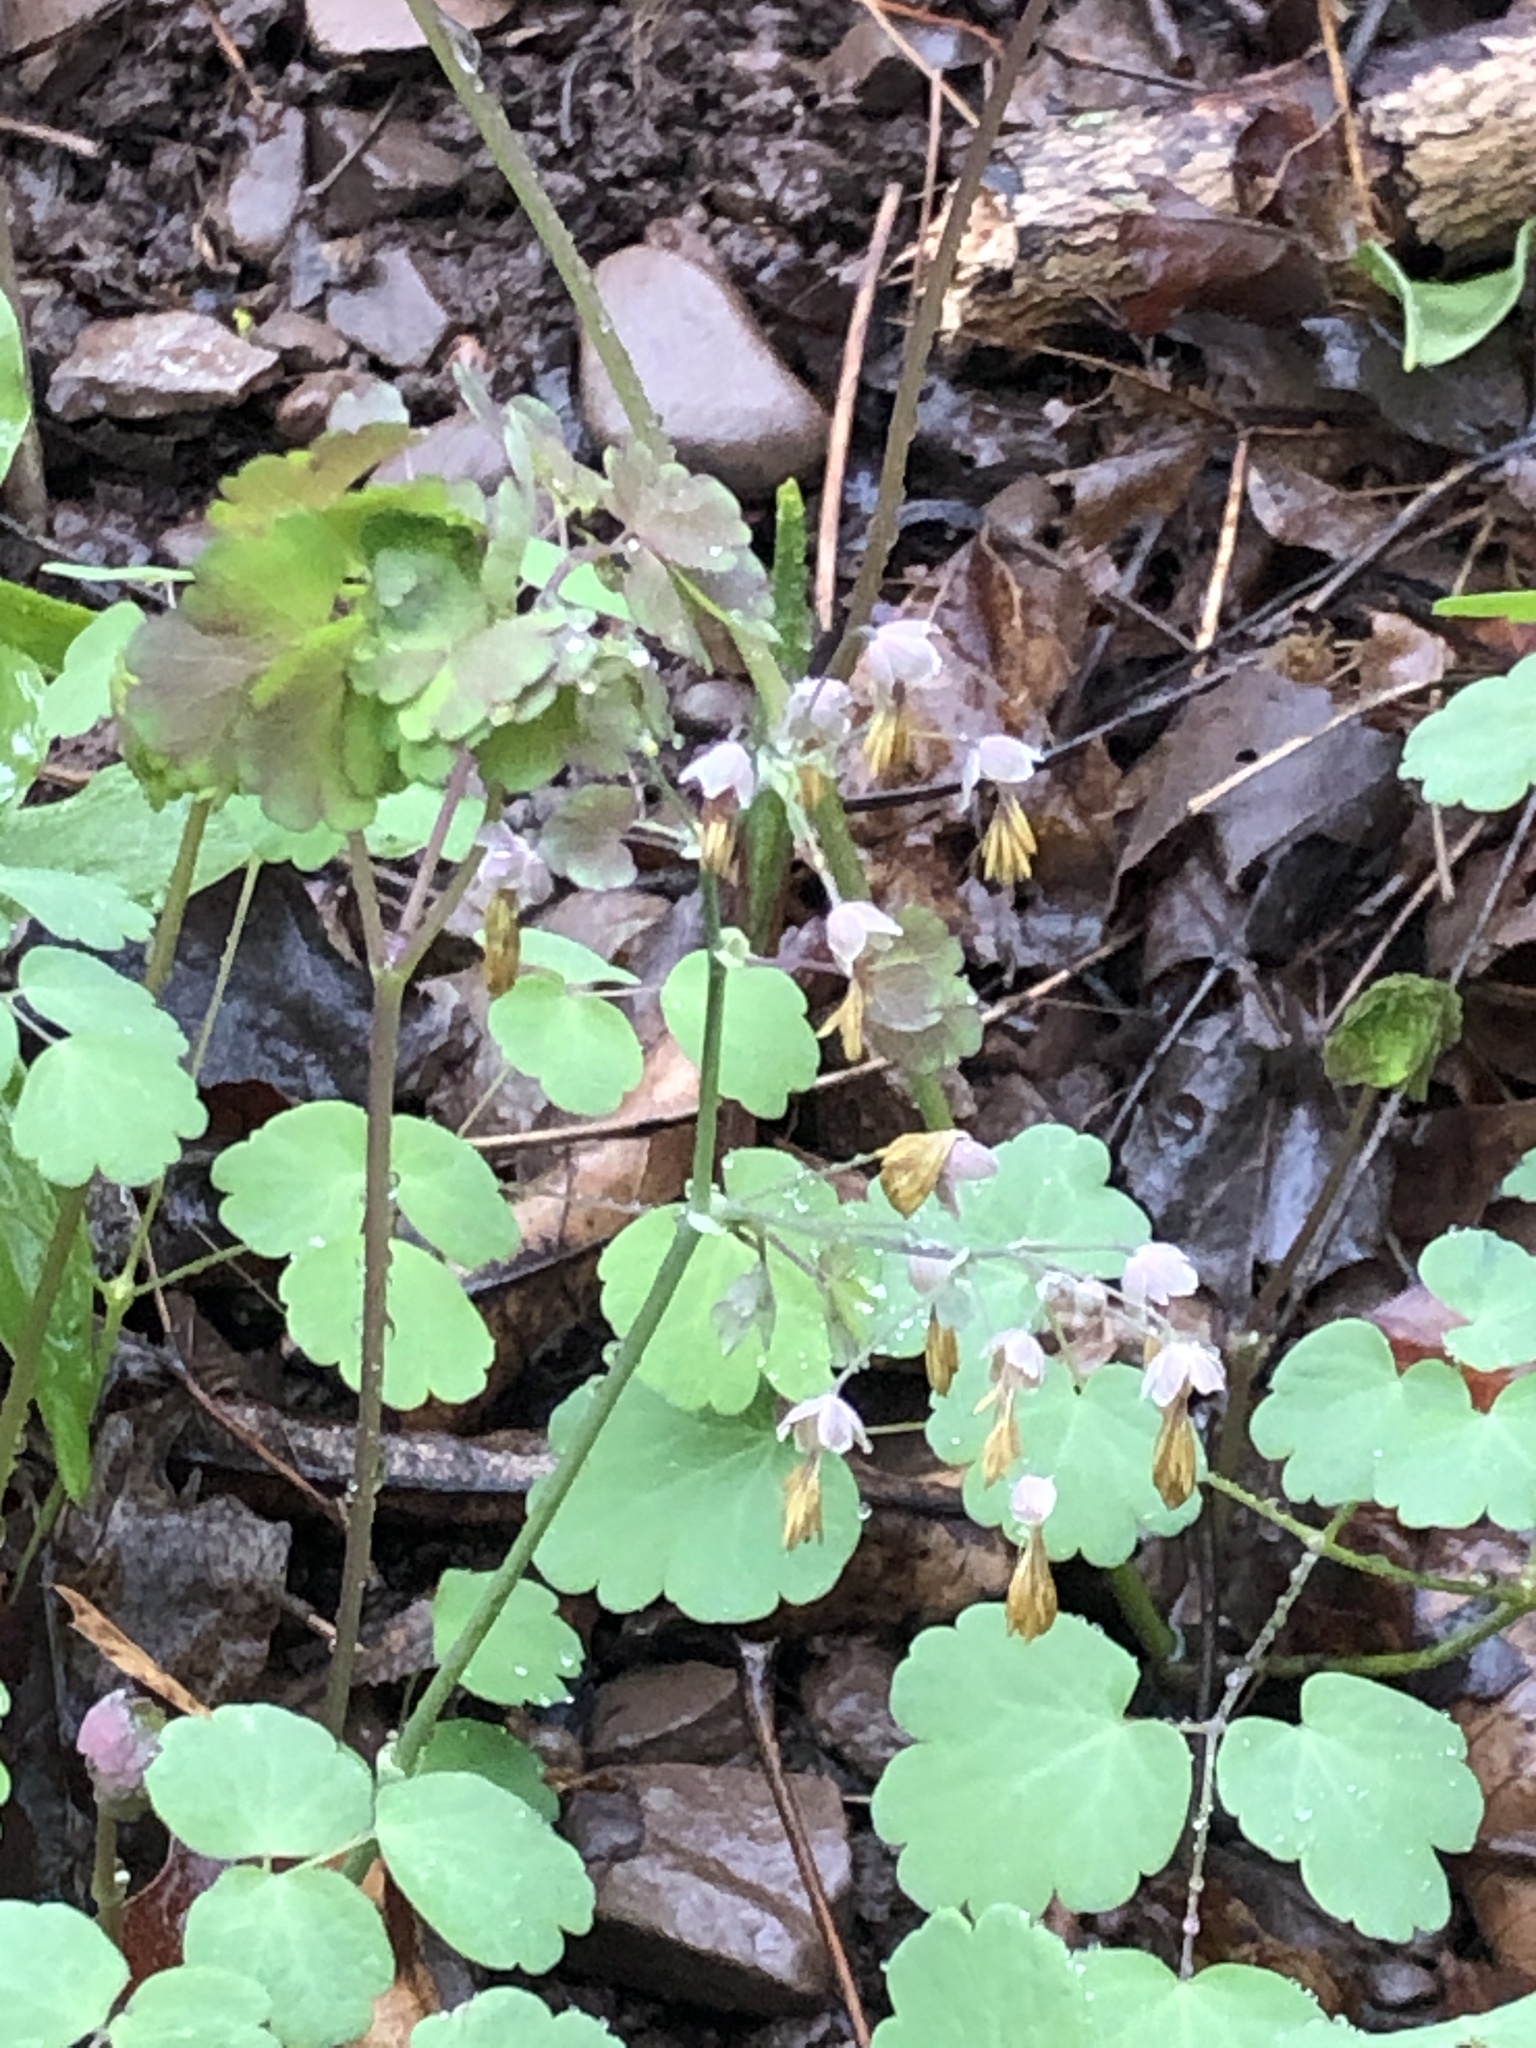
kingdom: Plantae
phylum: Tracheophyta
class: Magnoliopsida
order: Ranunculales
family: Ranunculaceae
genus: Thalictrum
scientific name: Thalictrum dioicum
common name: Early meadow-rue
